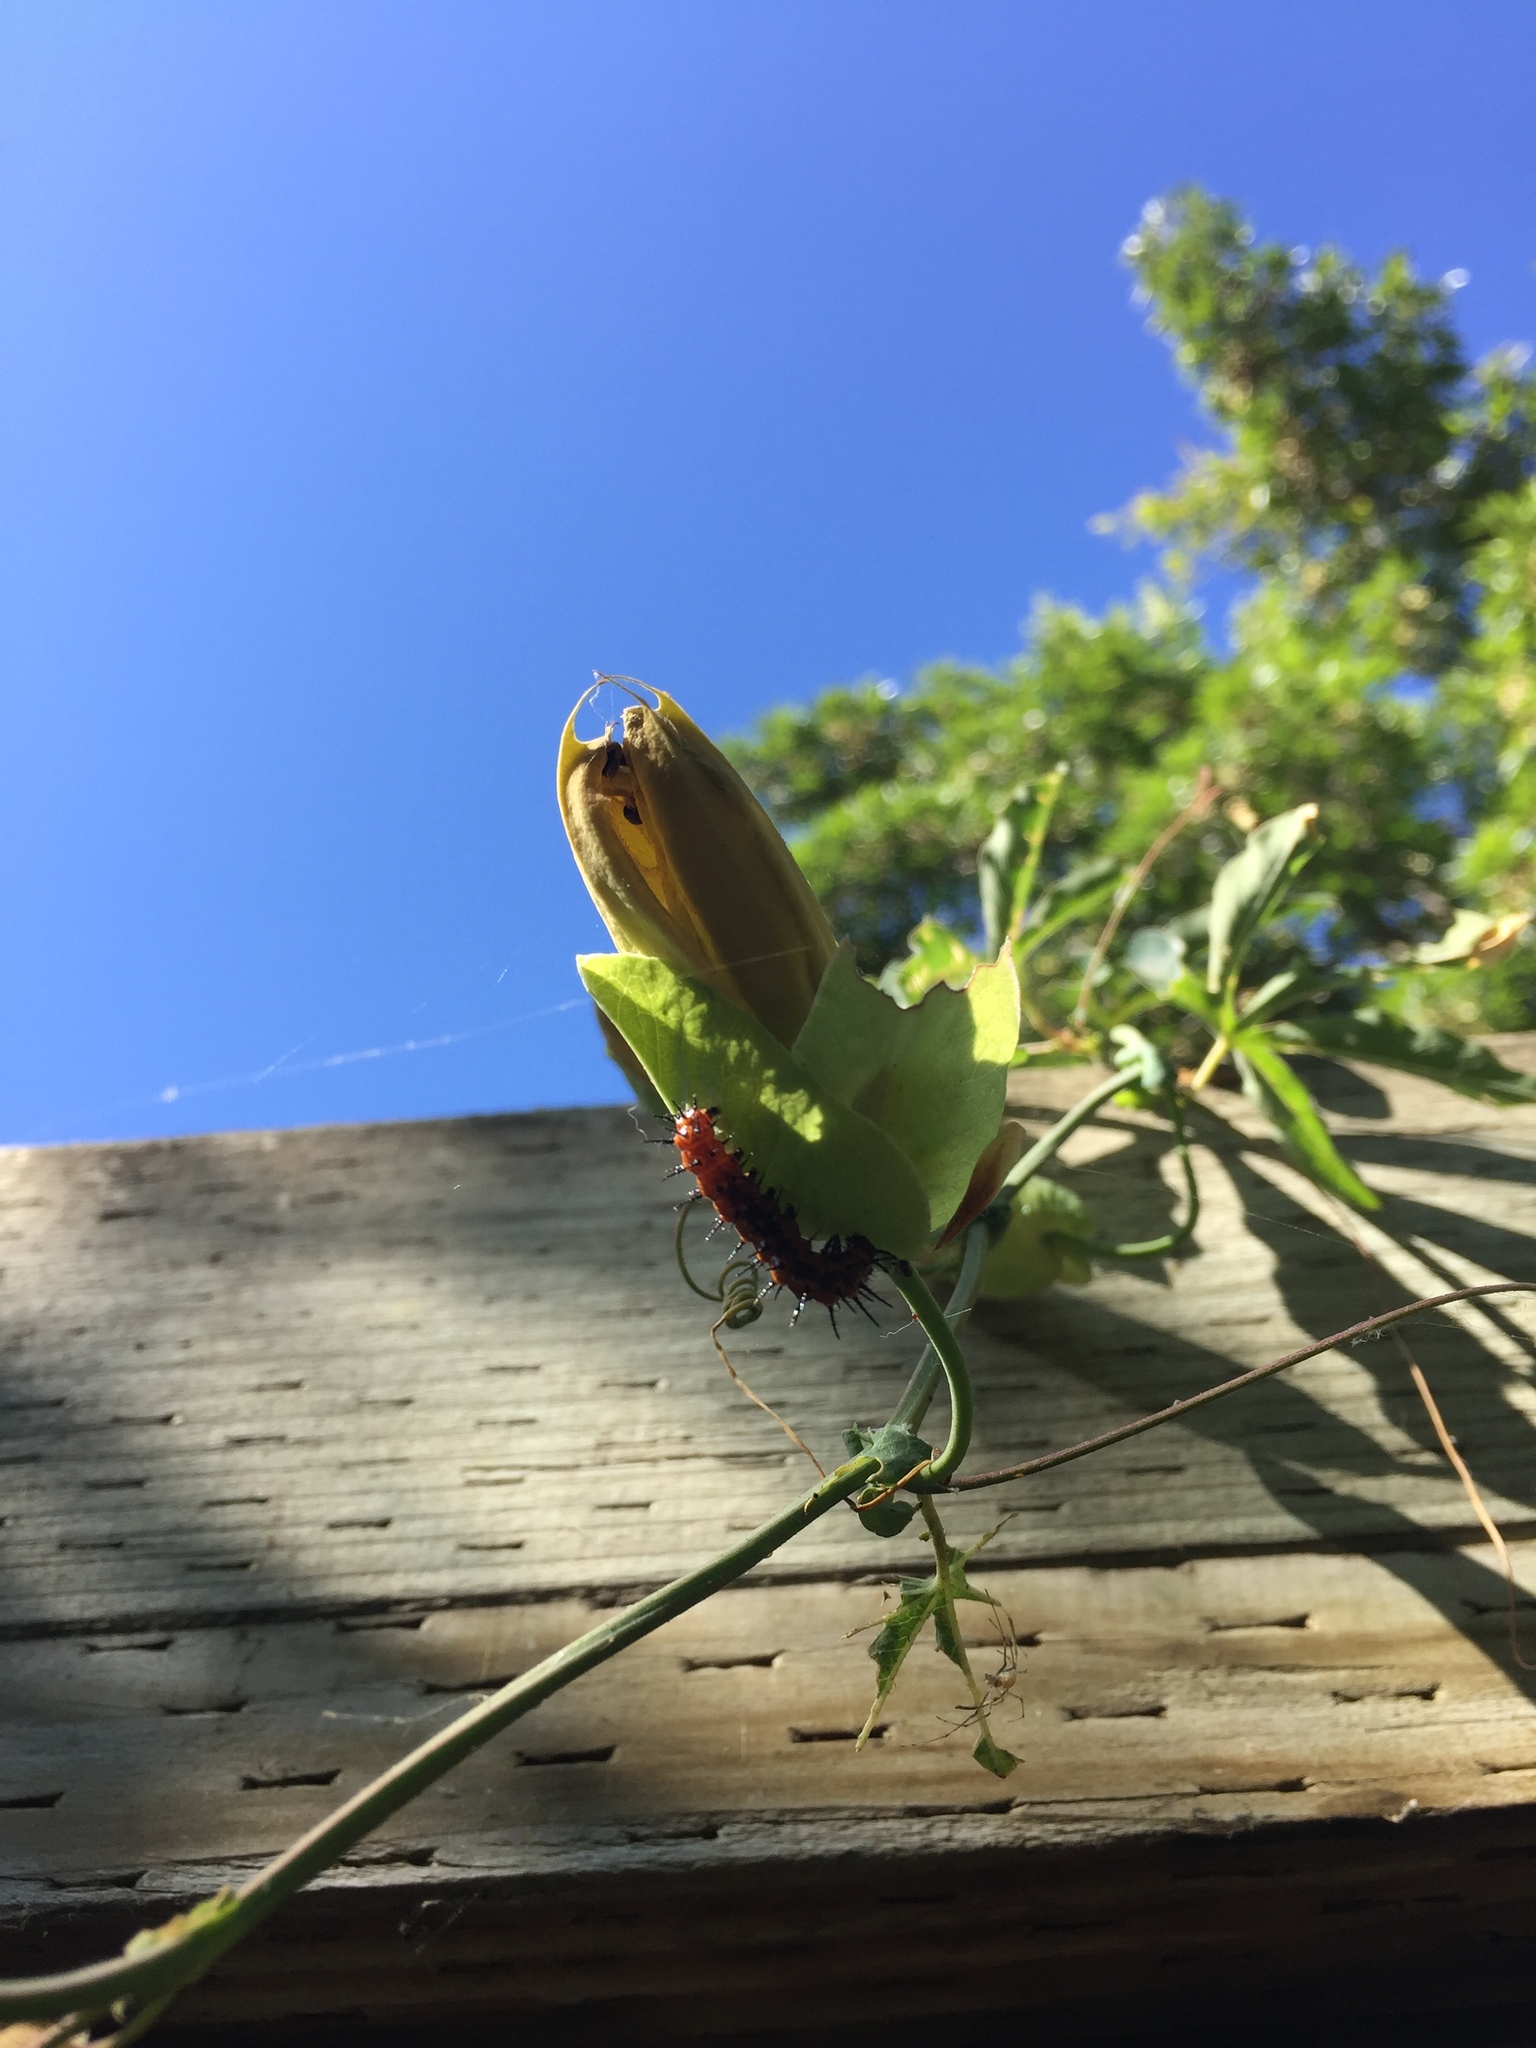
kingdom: Animalia
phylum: Arthropoda
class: Insecta
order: Lepidoptera
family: Nymphalidae
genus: Dione
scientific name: Dione vanillae
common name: Gulf fritillary
